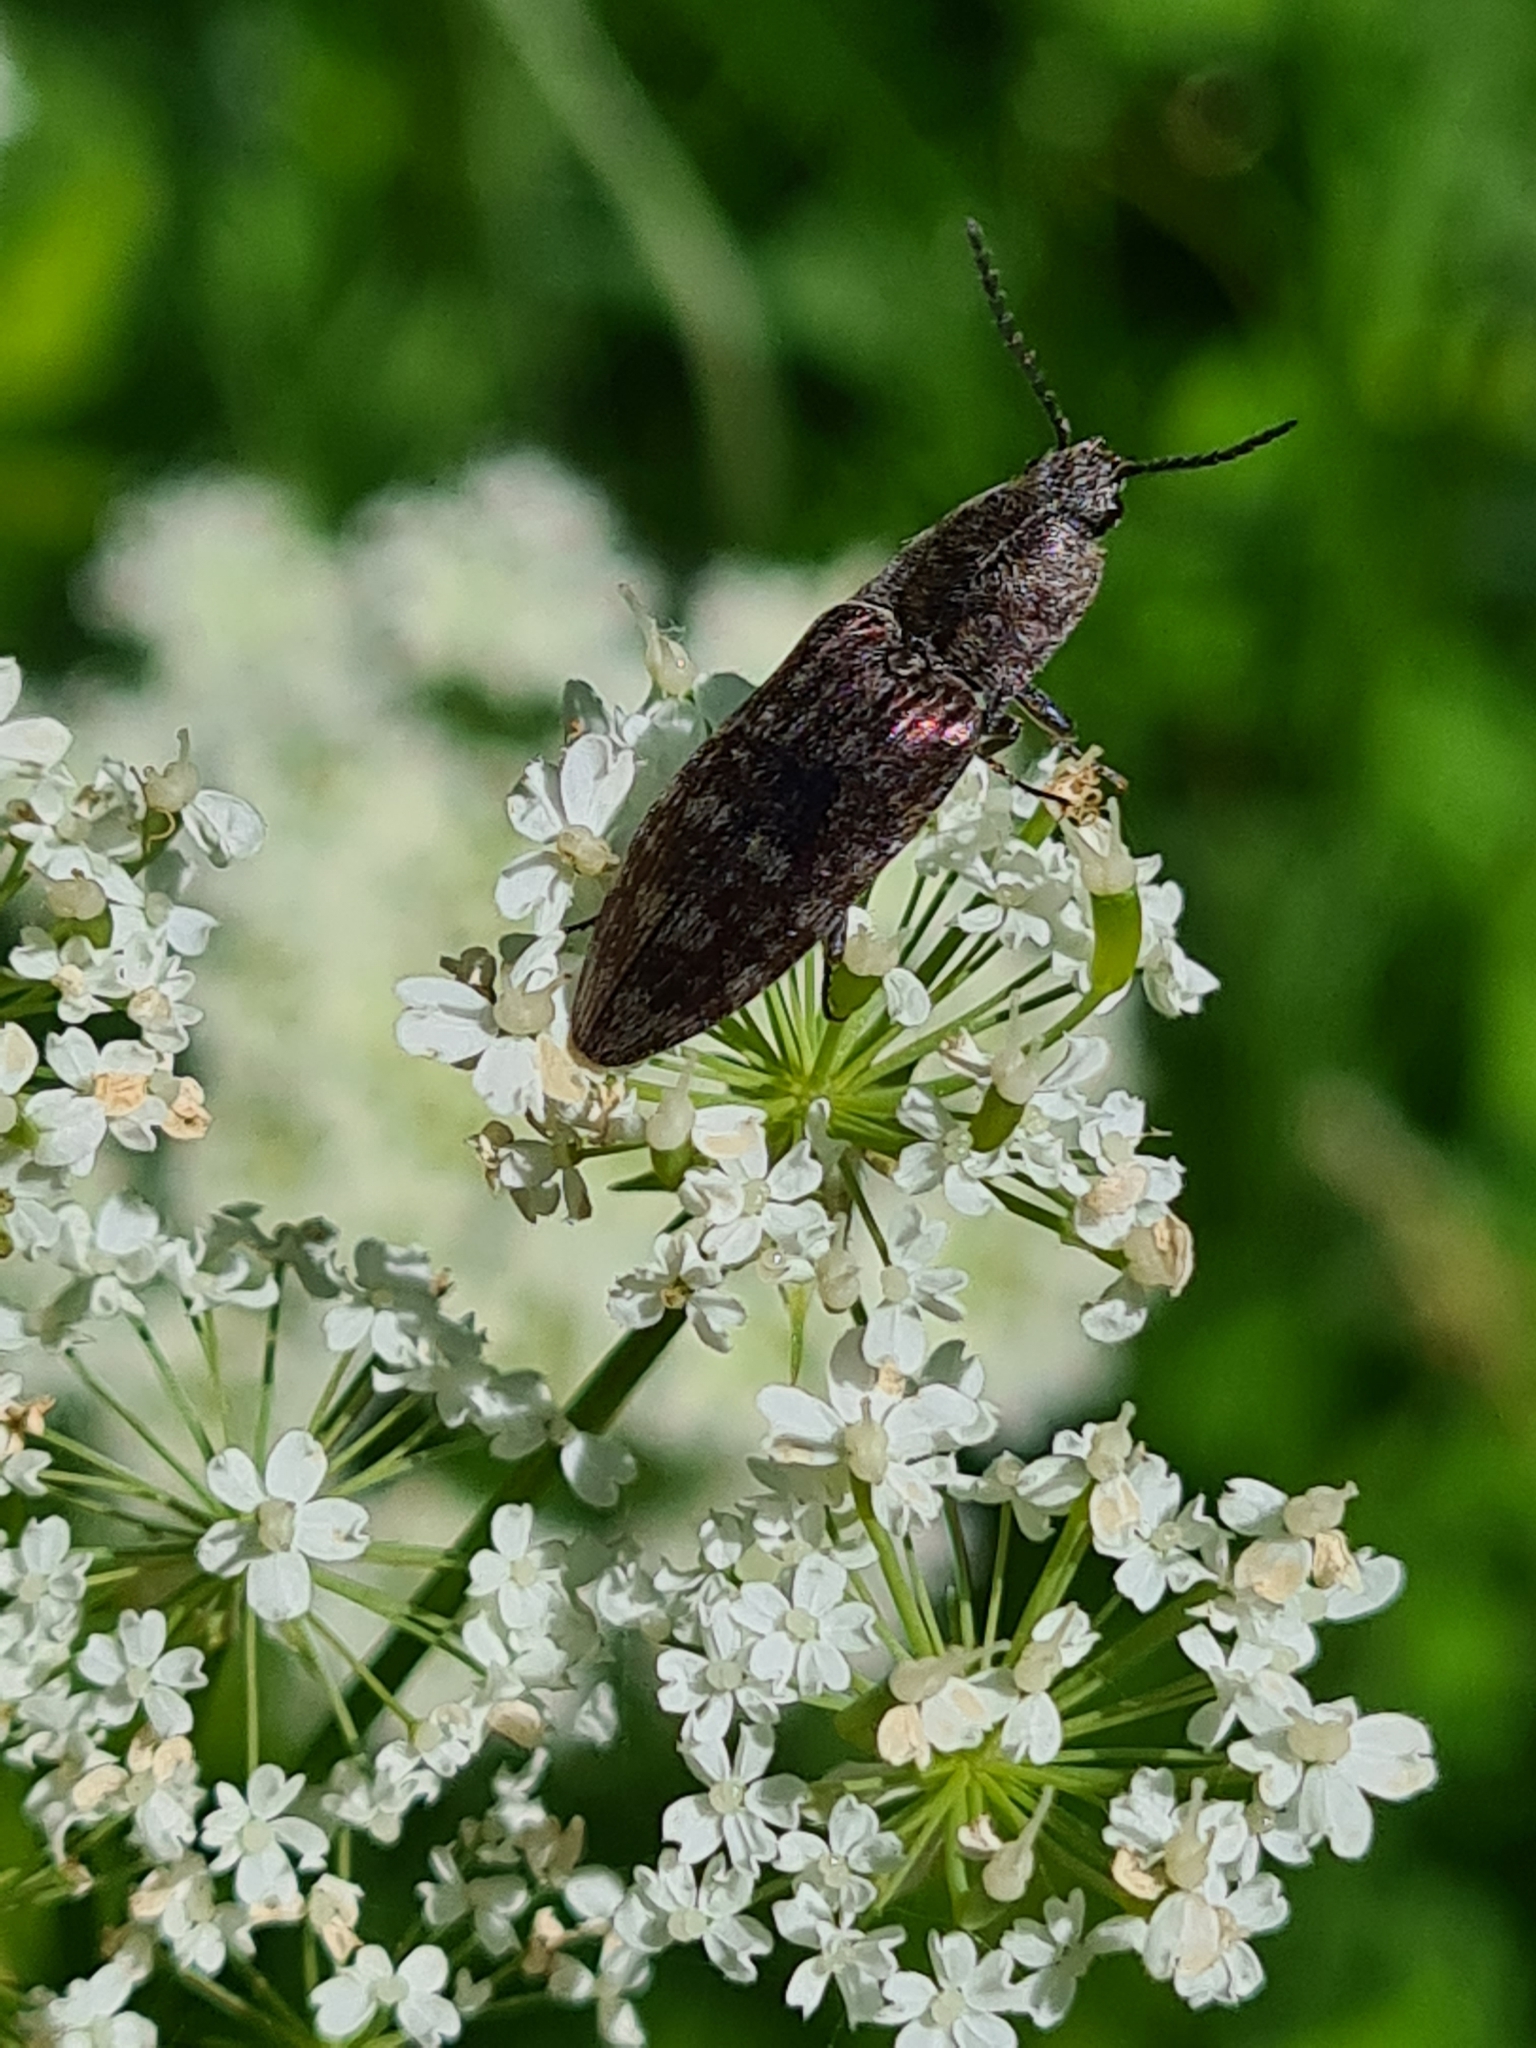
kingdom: Animalia
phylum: Arthropoda
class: Insecta
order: Coleoptera
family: Elateridae
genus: Actenicerus
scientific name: Actenicerus sjaelandicus
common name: Marsh click beetle
